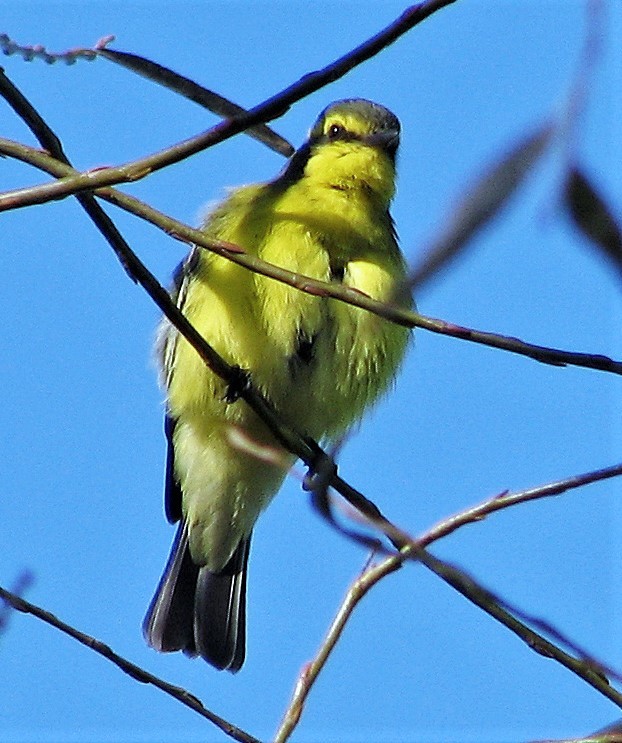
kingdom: Animalia
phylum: Chordata
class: Aves
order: Passeriformes
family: Tyrannidae
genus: Satrapa
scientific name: Satrapa icterophrys
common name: Yellow-browed tyrant
